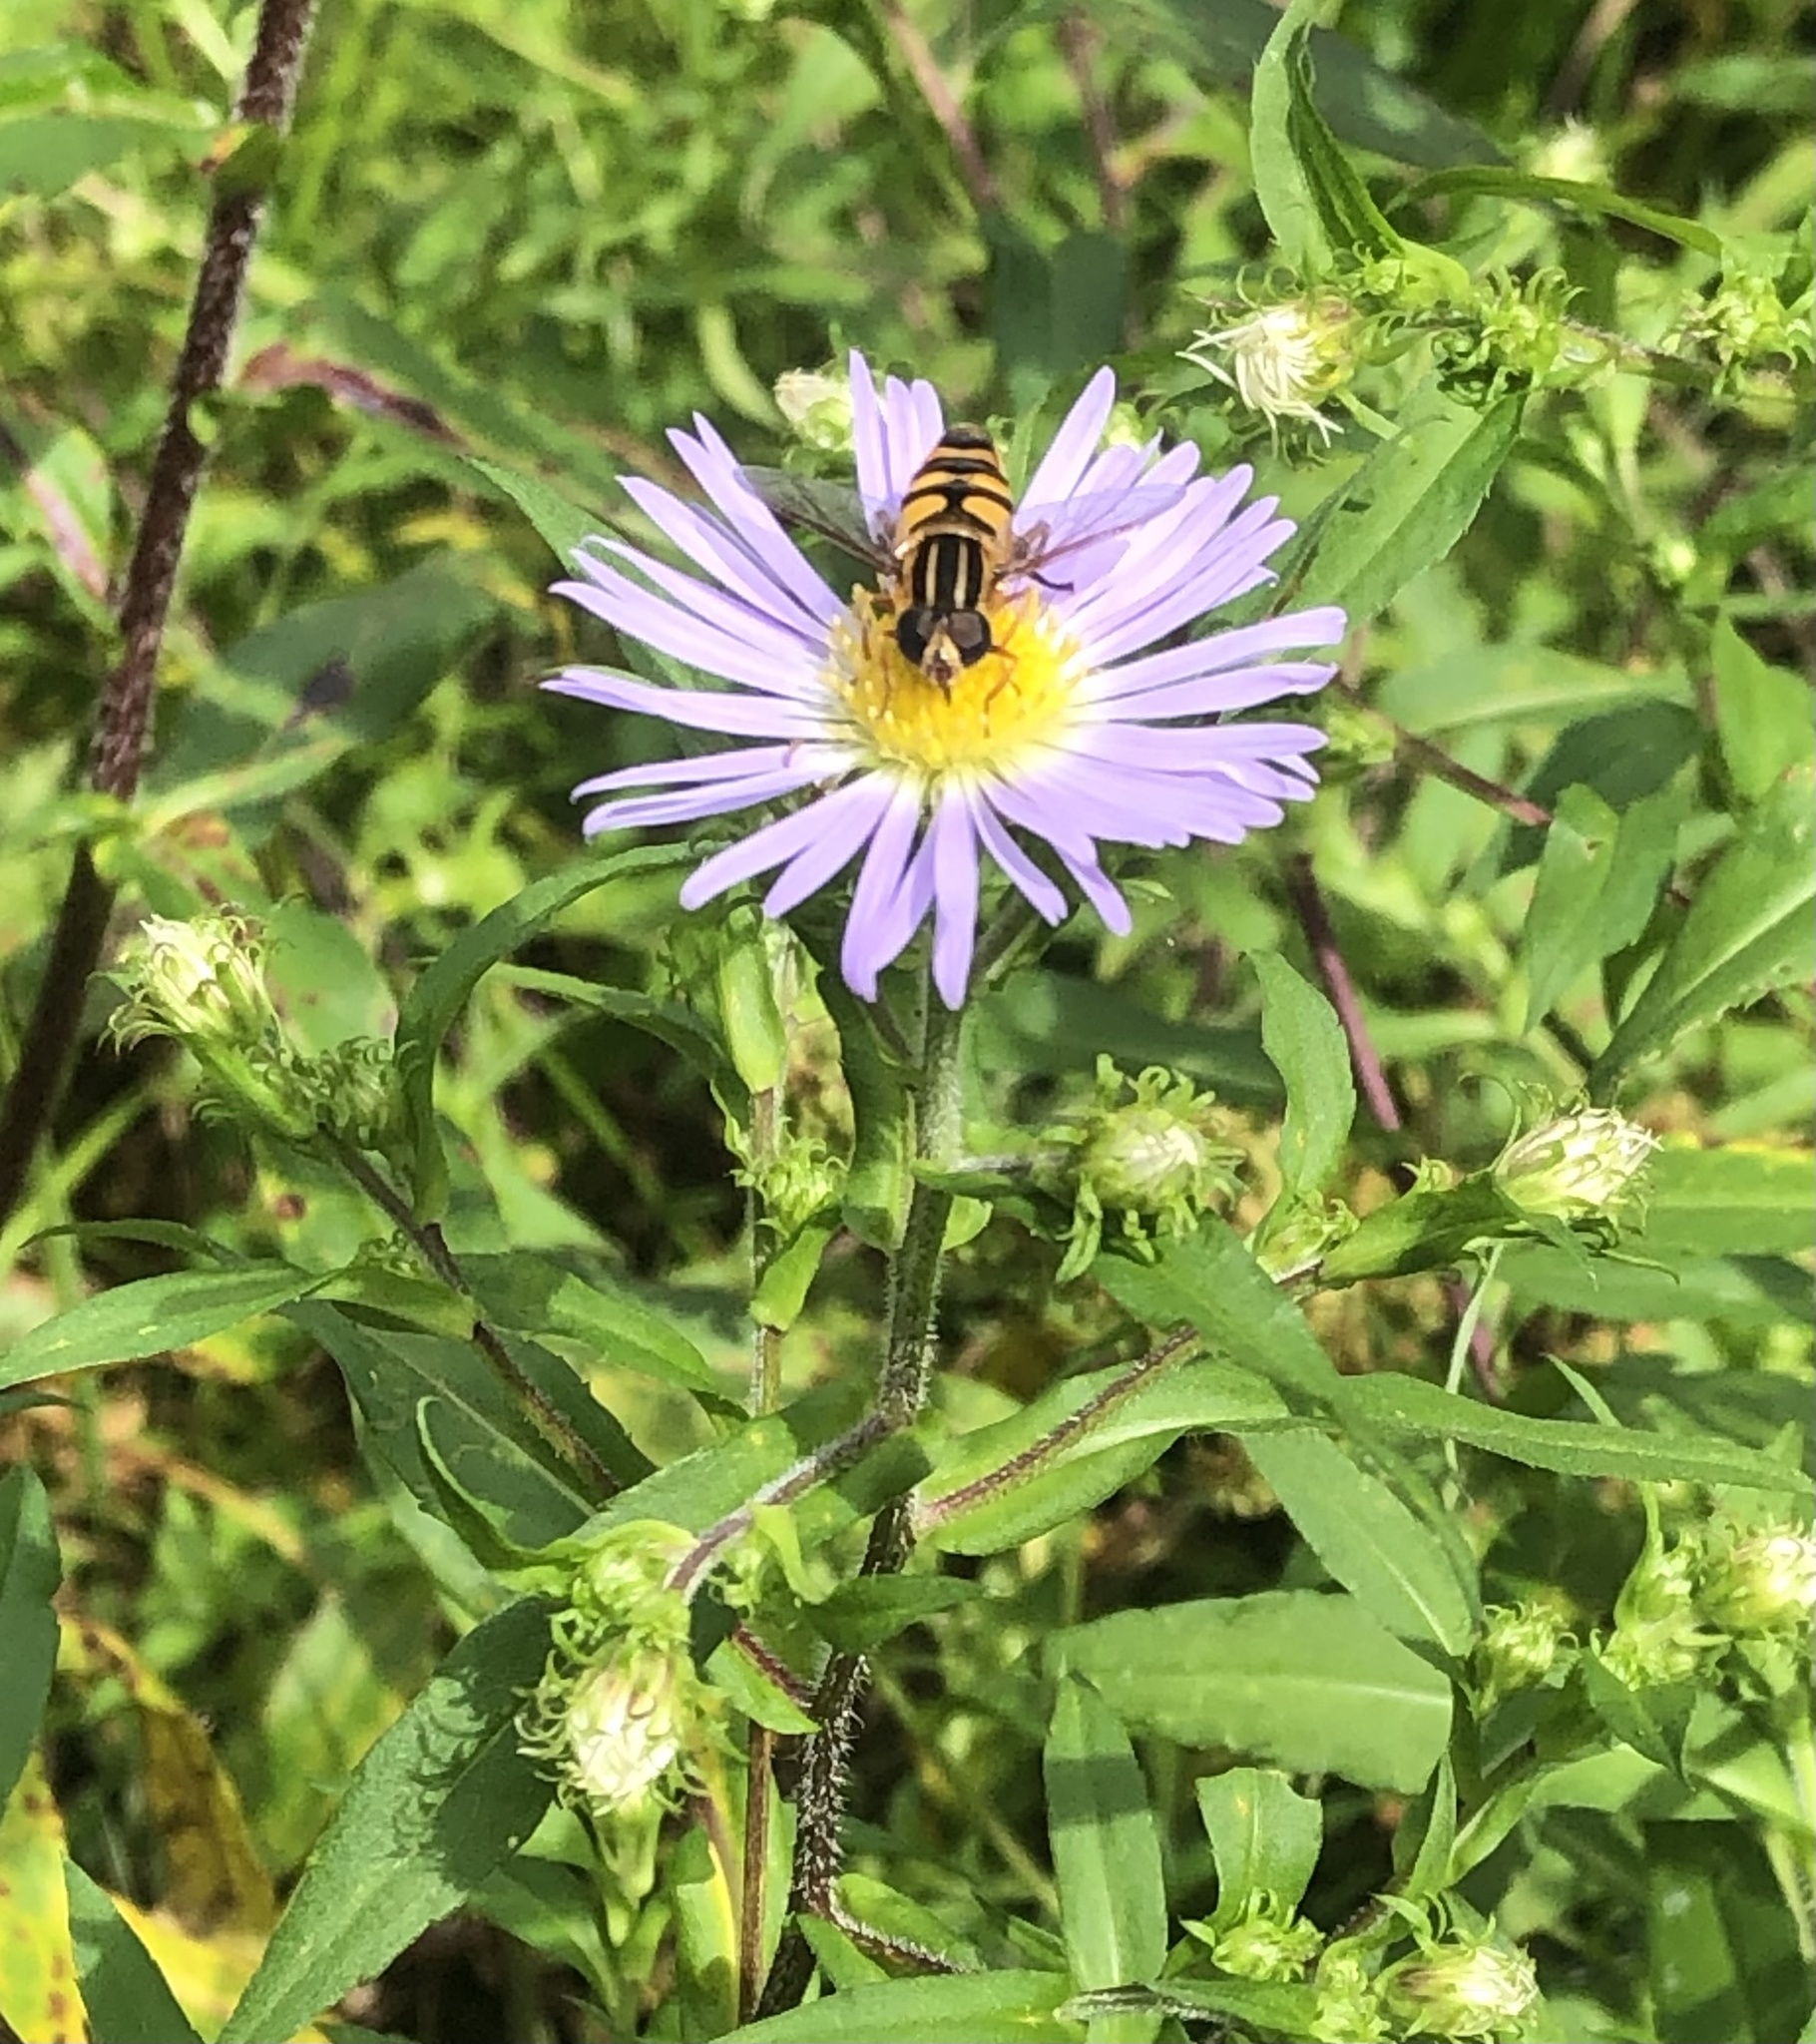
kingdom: Animalia
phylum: Arthropoda
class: Insecta
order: Diptera
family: Syrphidae
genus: Helophilus
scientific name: Helophilus fasciatus
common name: Narrow-headed marsh fly
